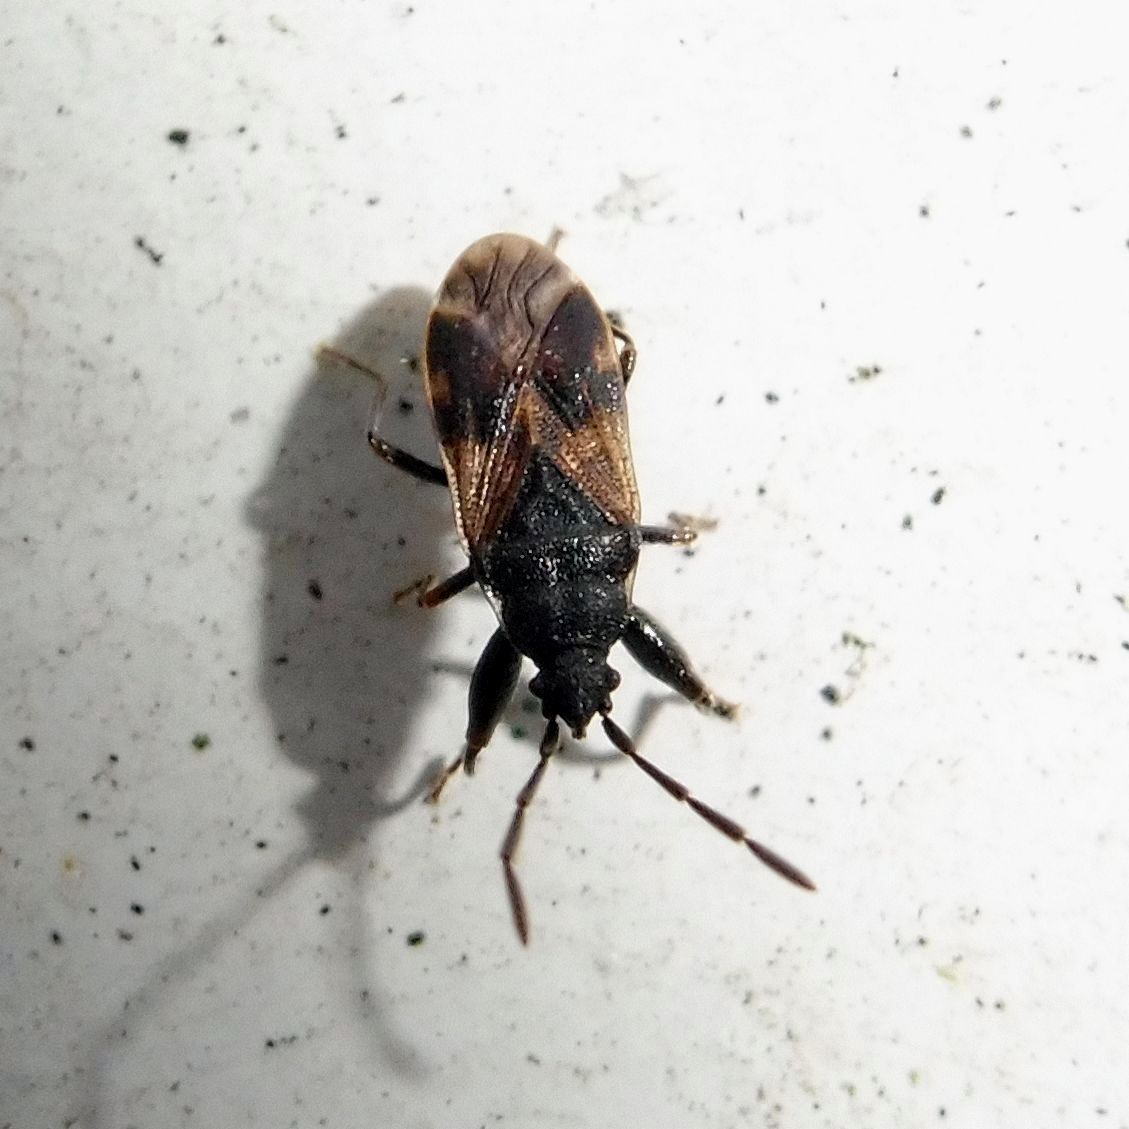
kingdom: Animalia
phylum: Arthropoda
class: Insecta
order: Hemiptera
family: Rhyparochromidae
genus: Taphropeltus
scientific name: Taphropeltus contractus
